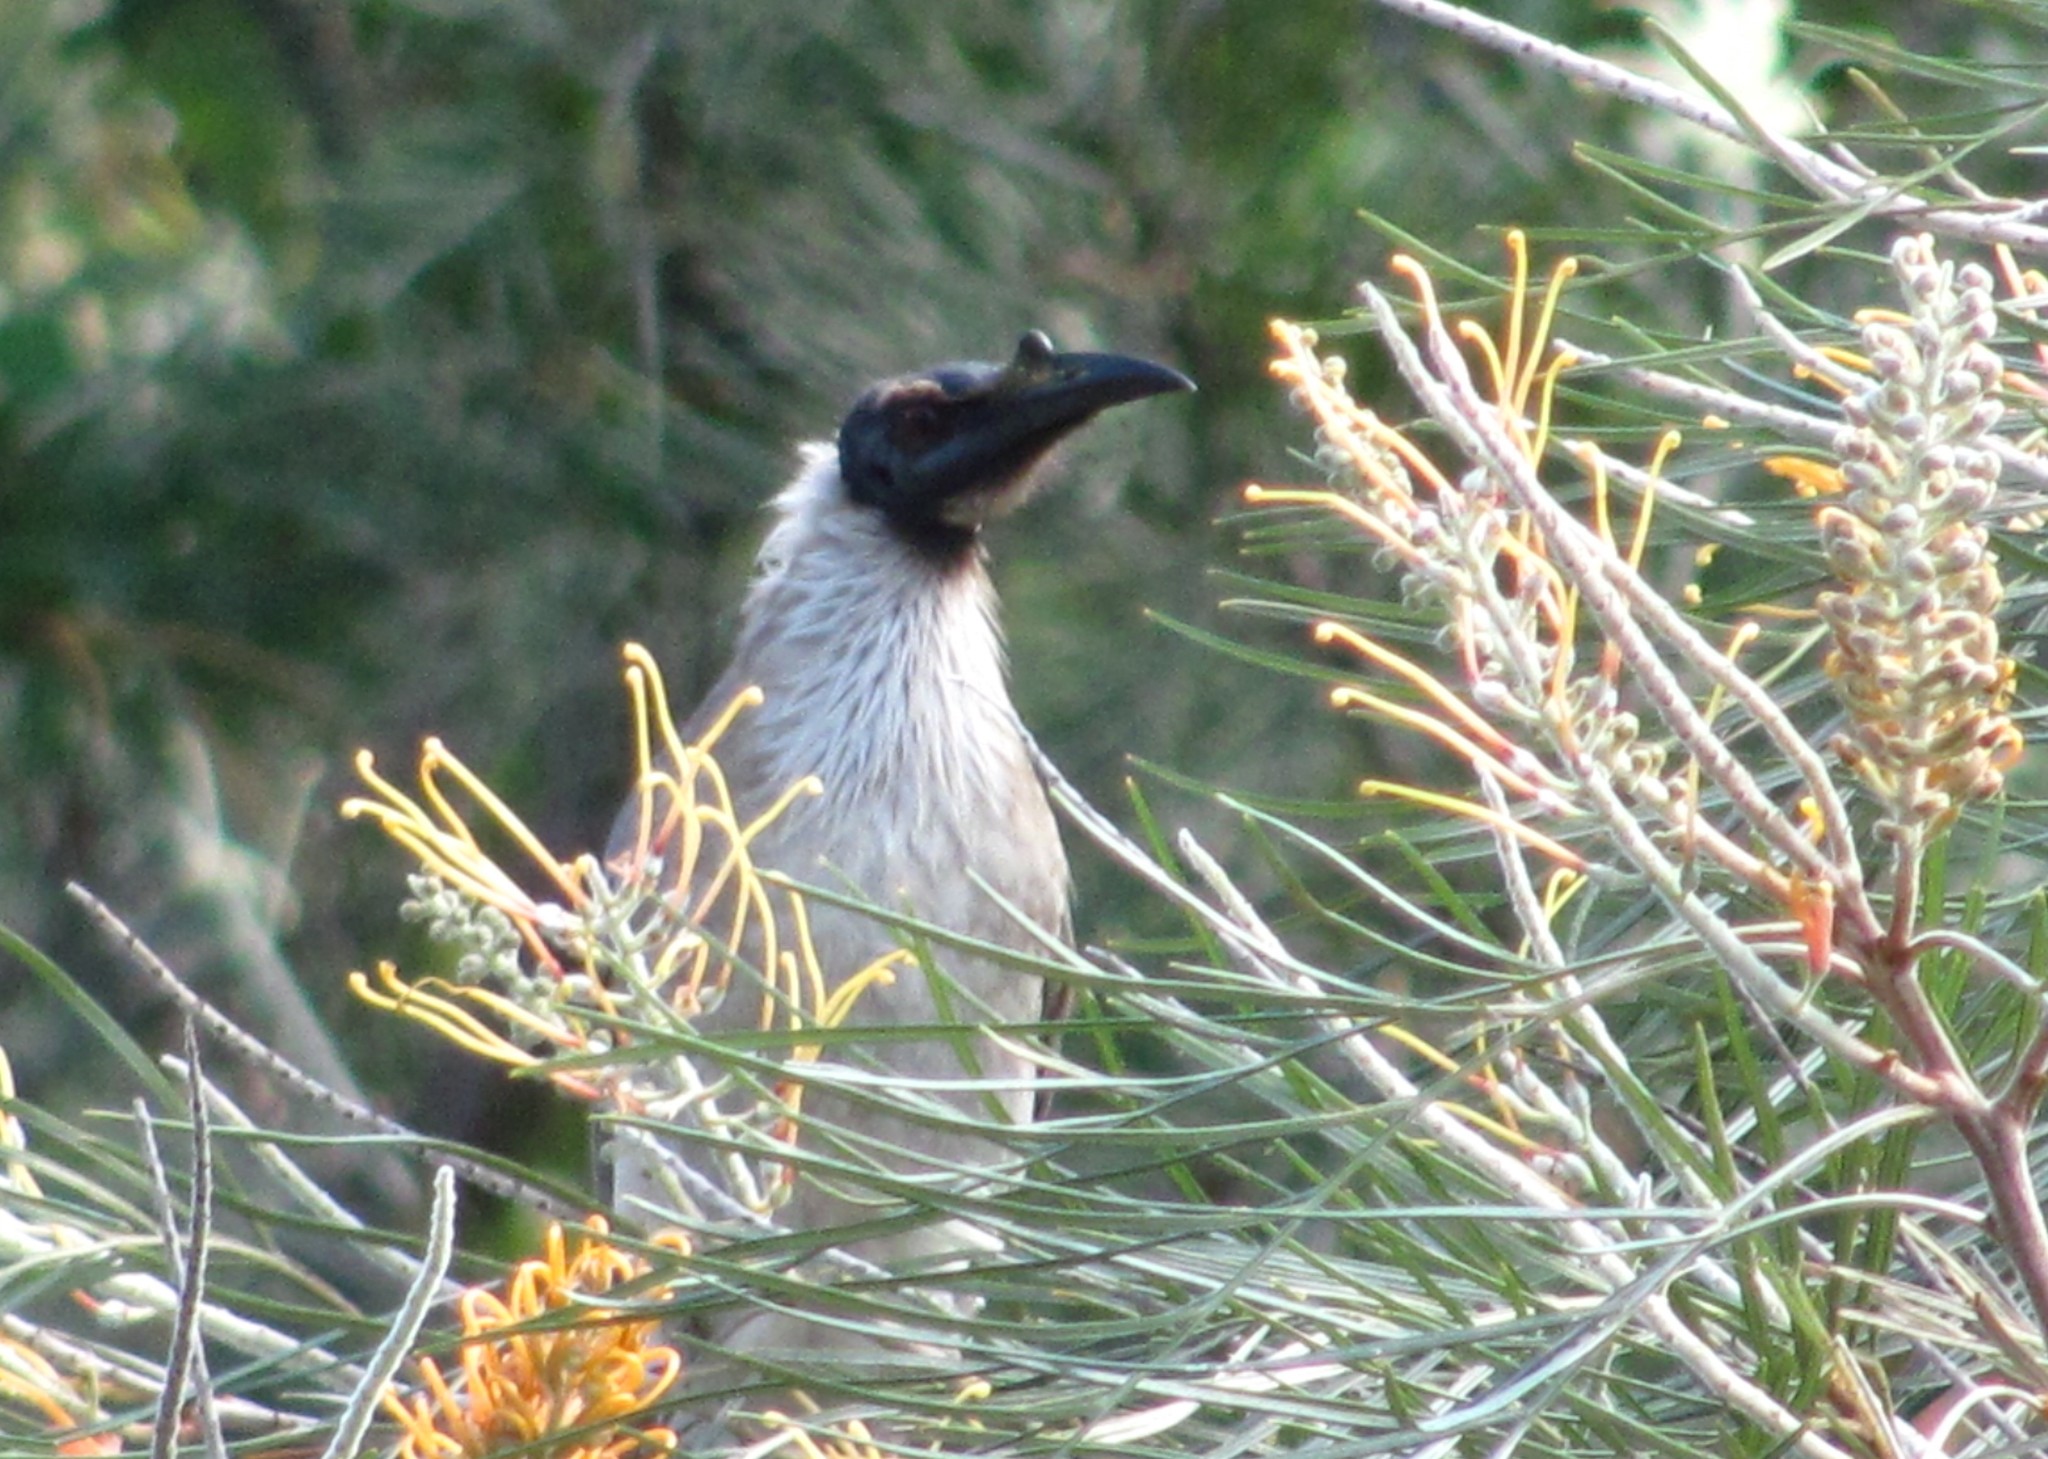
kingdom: Animalia
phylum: Chordata
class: Aves
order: Passeriformes
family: Meliphagidae
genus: Philemon
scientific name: Philemon corniculatus
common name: Noisy friarbird
